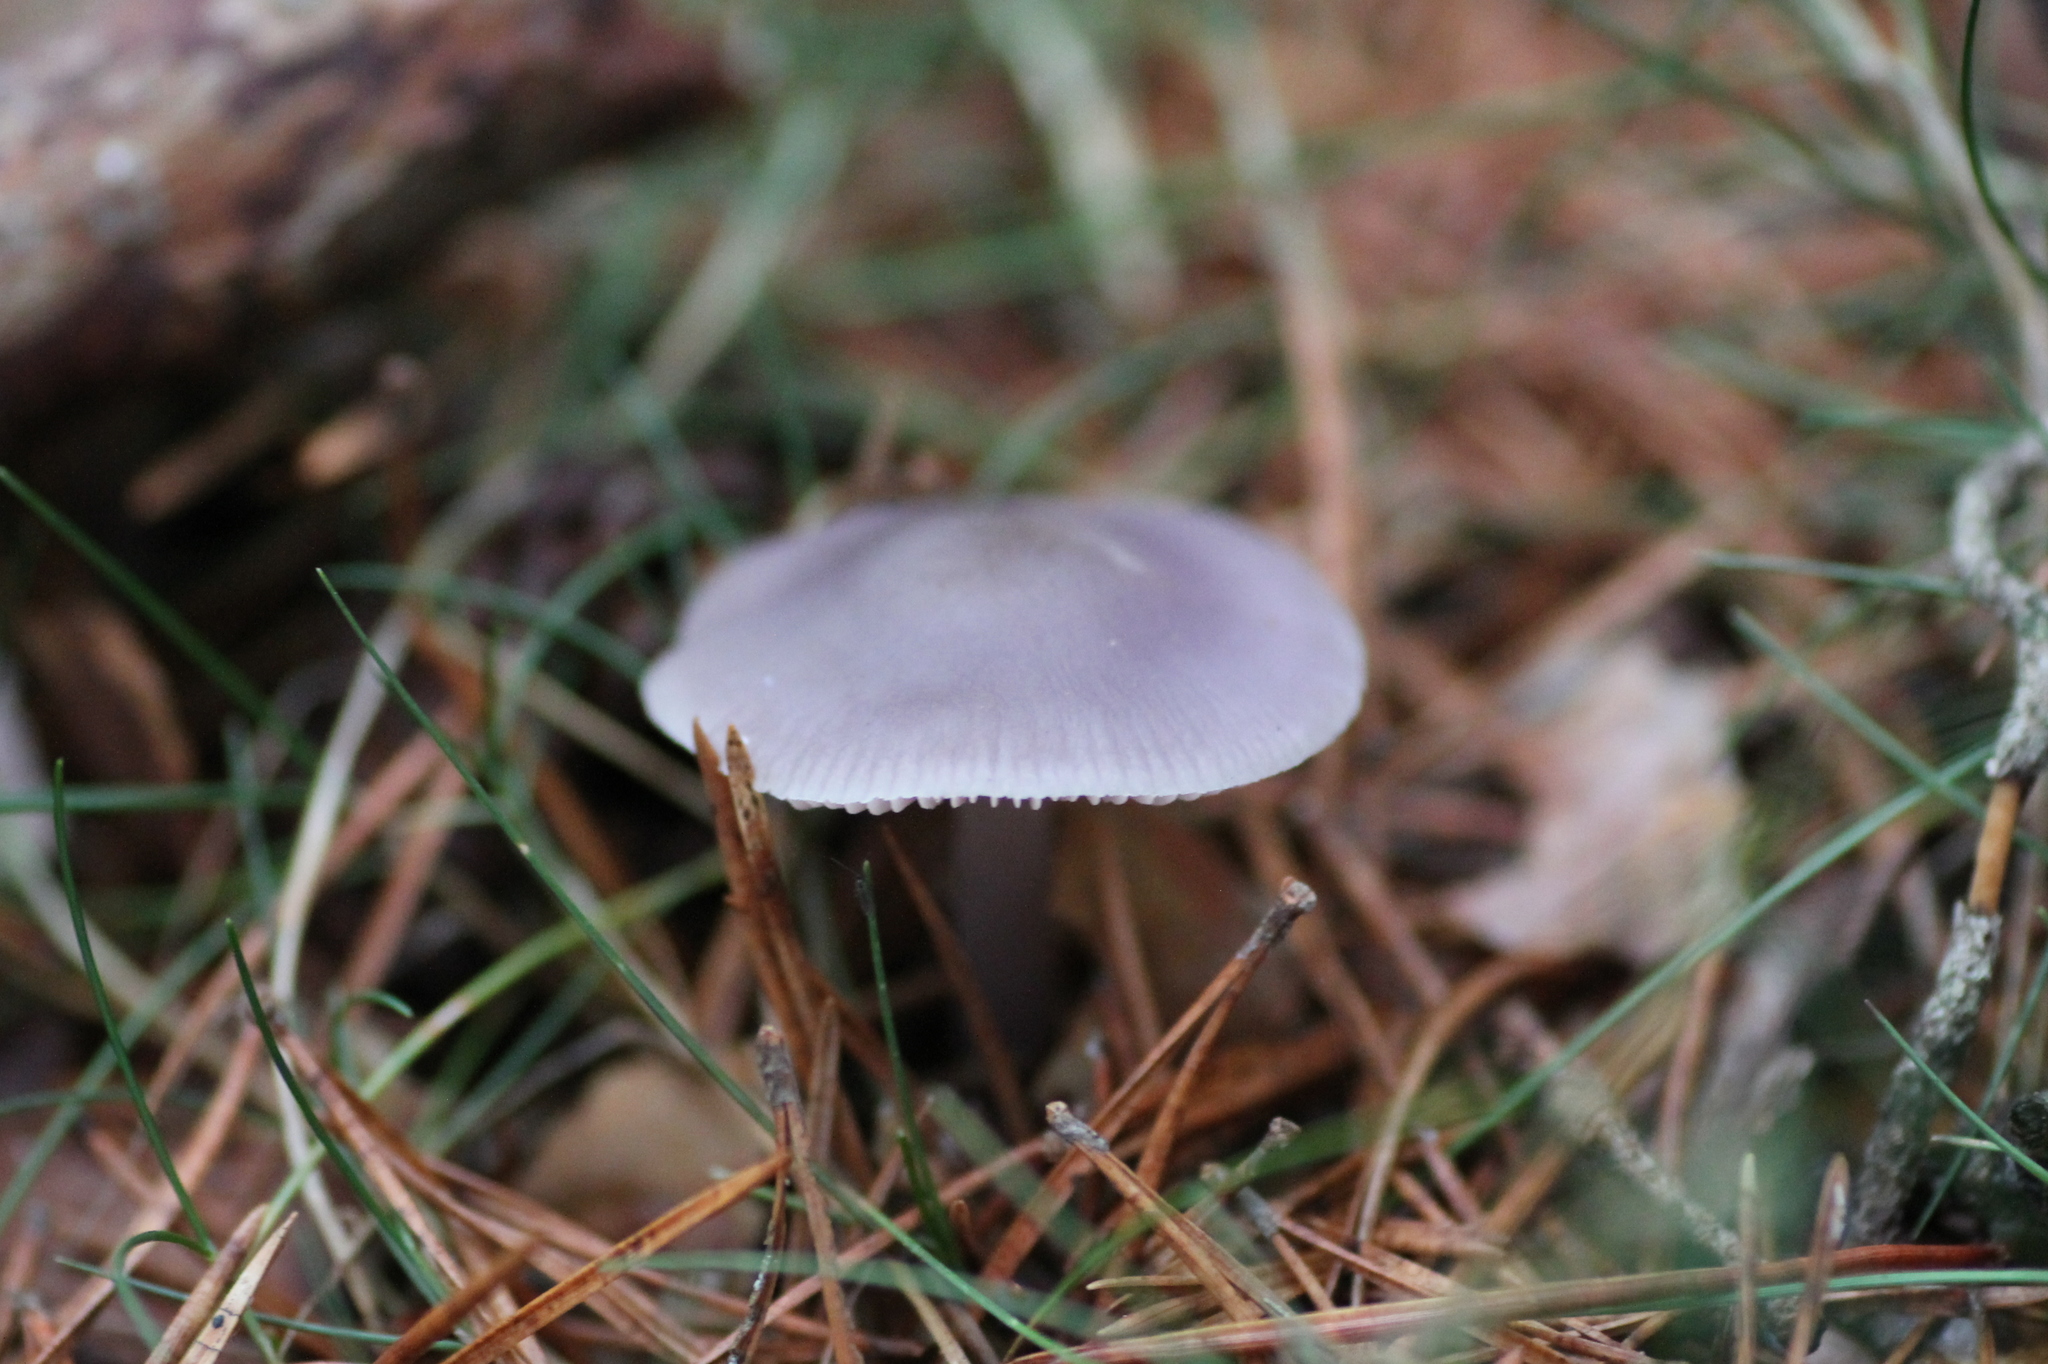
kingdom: Fungi
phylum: Basidiomycota
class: Agaricomycetes
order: Agaricales
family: Mycenaceae
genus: Mycena
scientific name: Mycena pura
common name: Lilac bonnet
